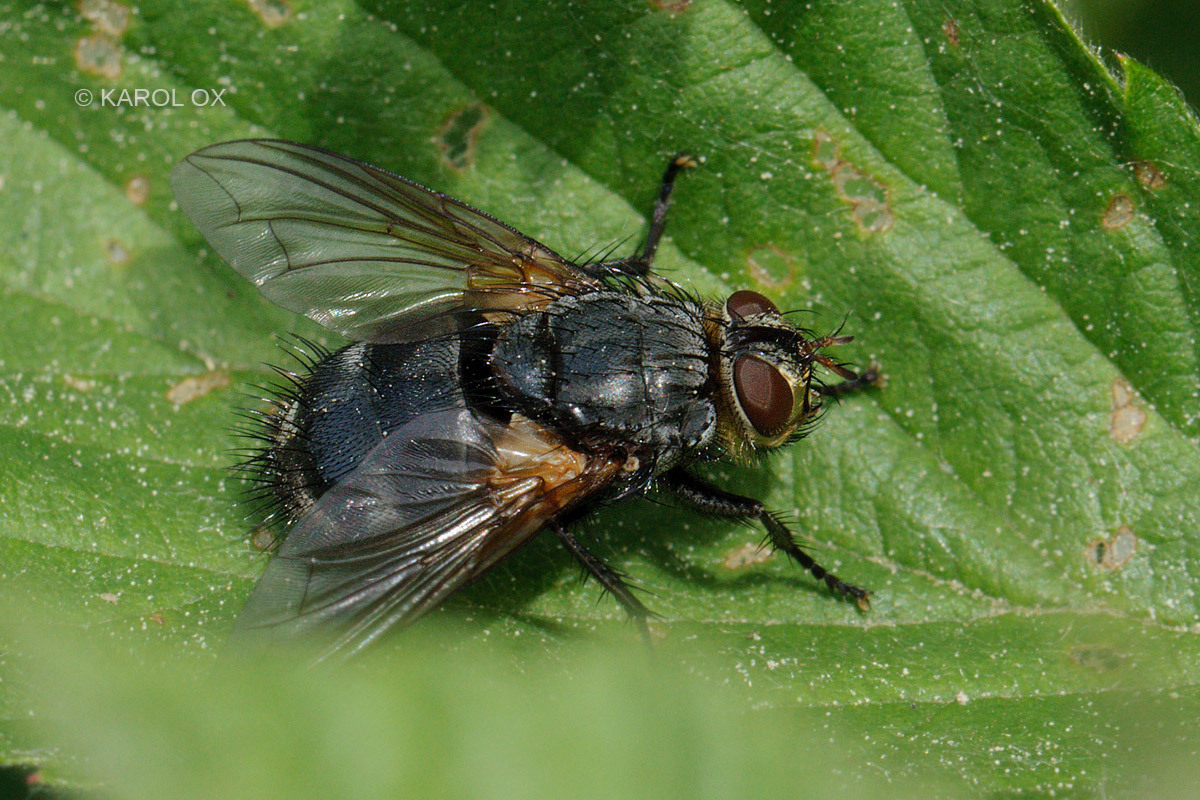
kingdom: Animalia
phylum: Arthropoda
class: Insecta
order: Diptera
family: Tachinidae
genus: Nemoraea
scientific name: Nemoraea pellucida
